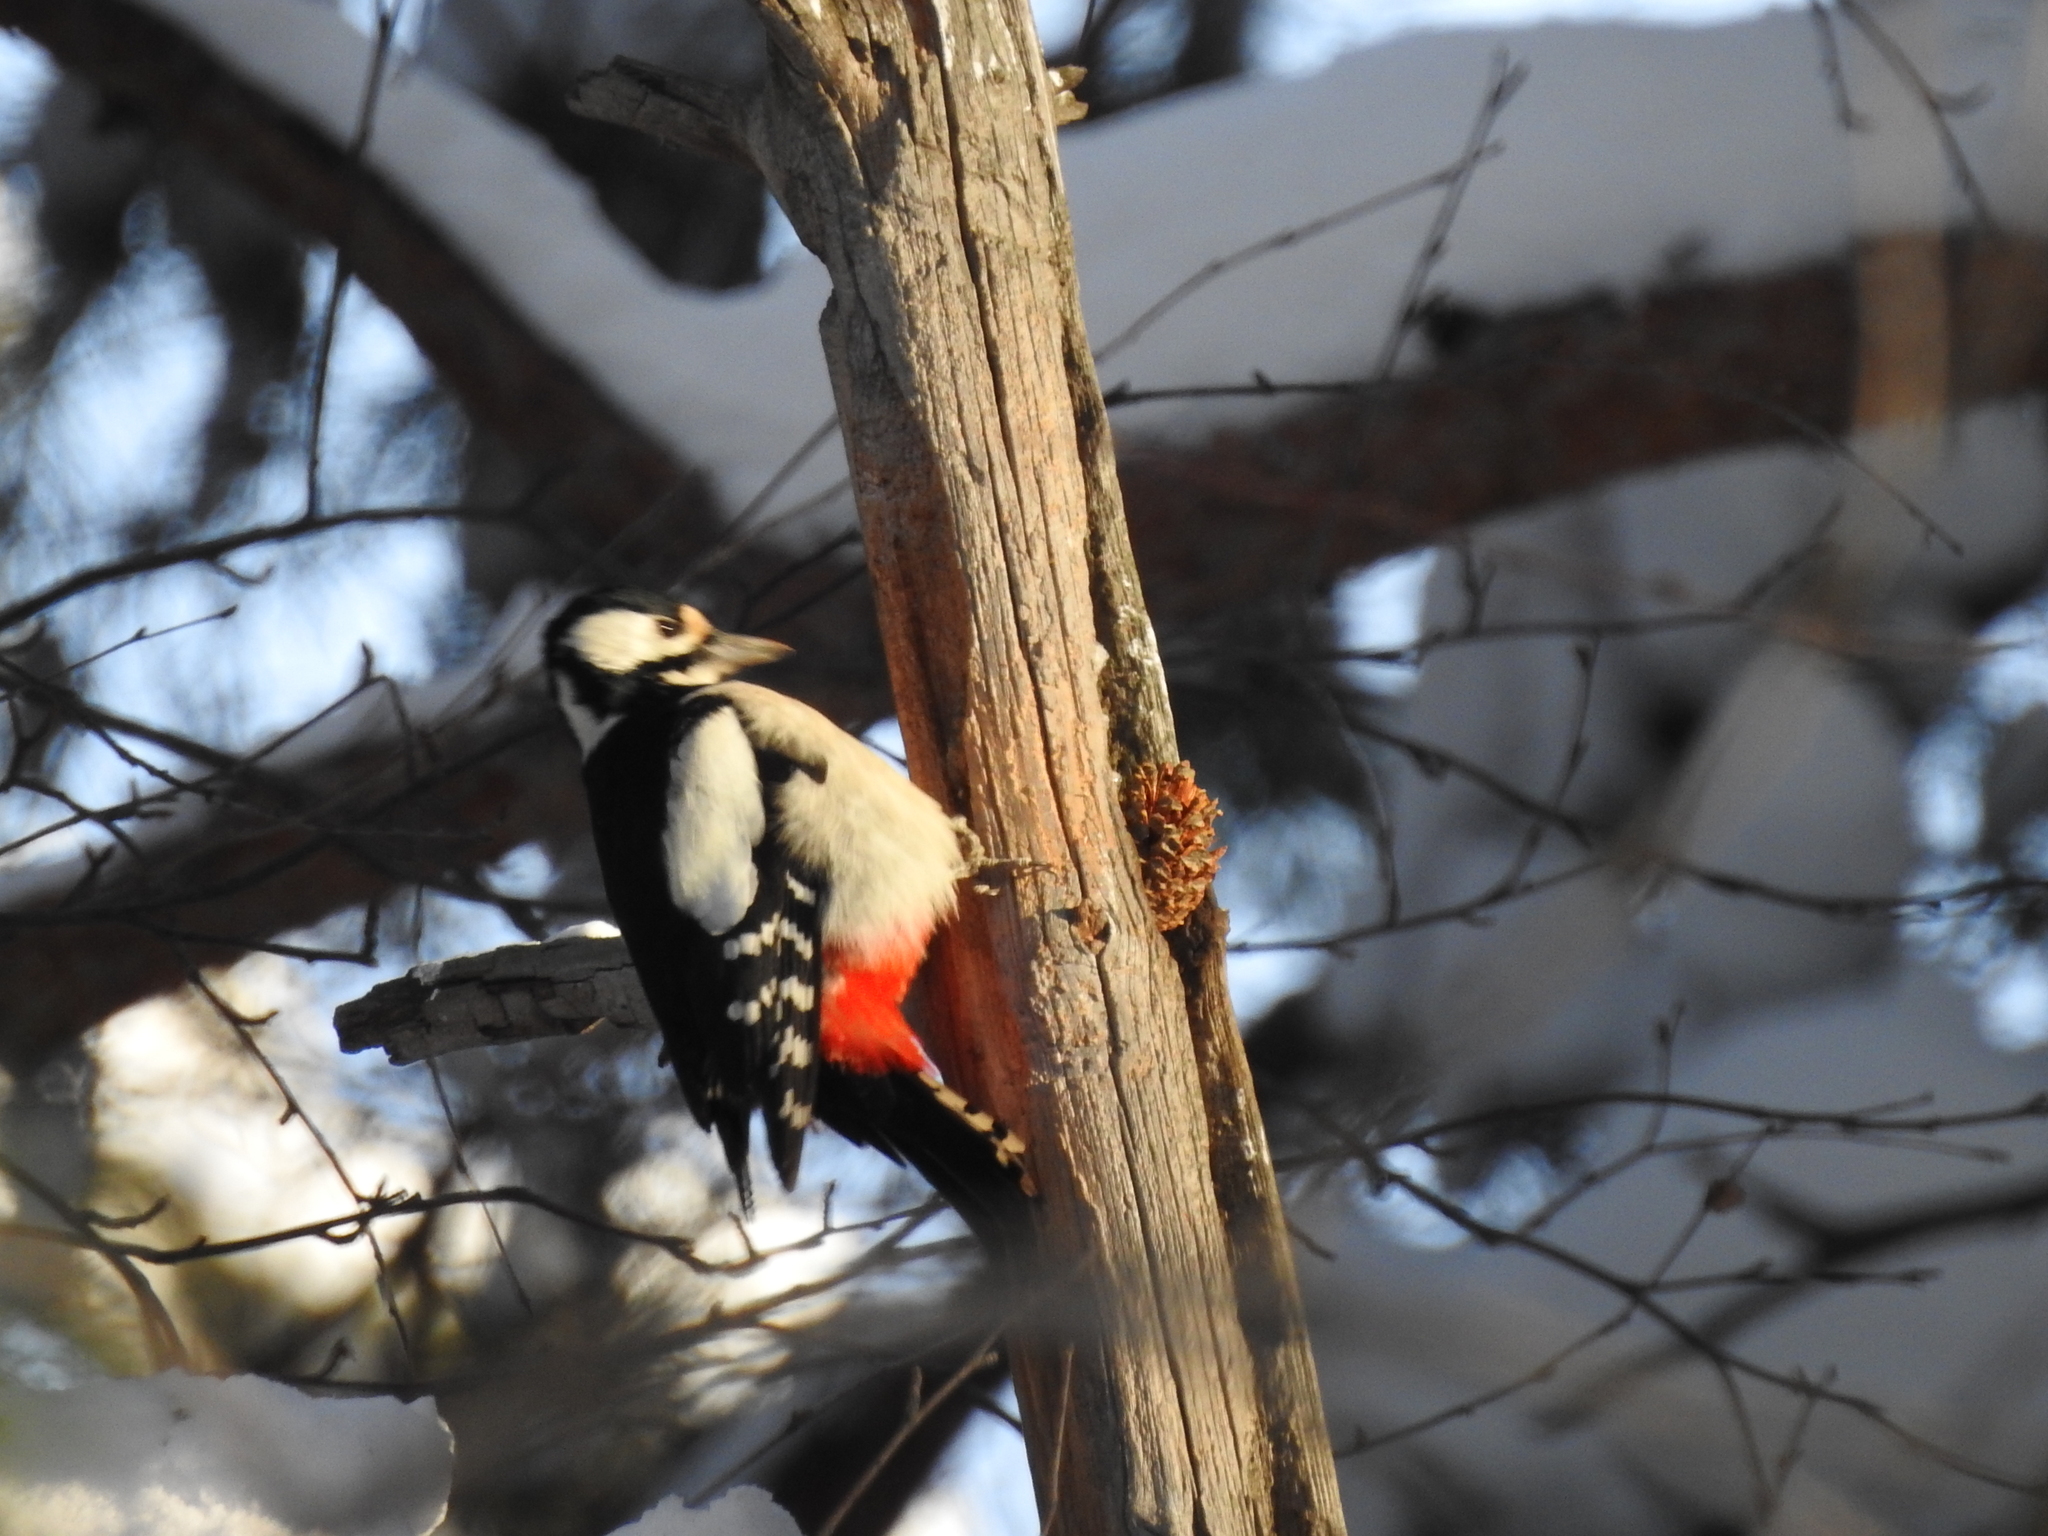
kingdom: Animalia
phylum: Chordata
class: Aves
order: Piciformes
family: Picidae
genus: Dendrocopos
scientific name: Dendrocopos major
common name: Great spotted woodpecker
